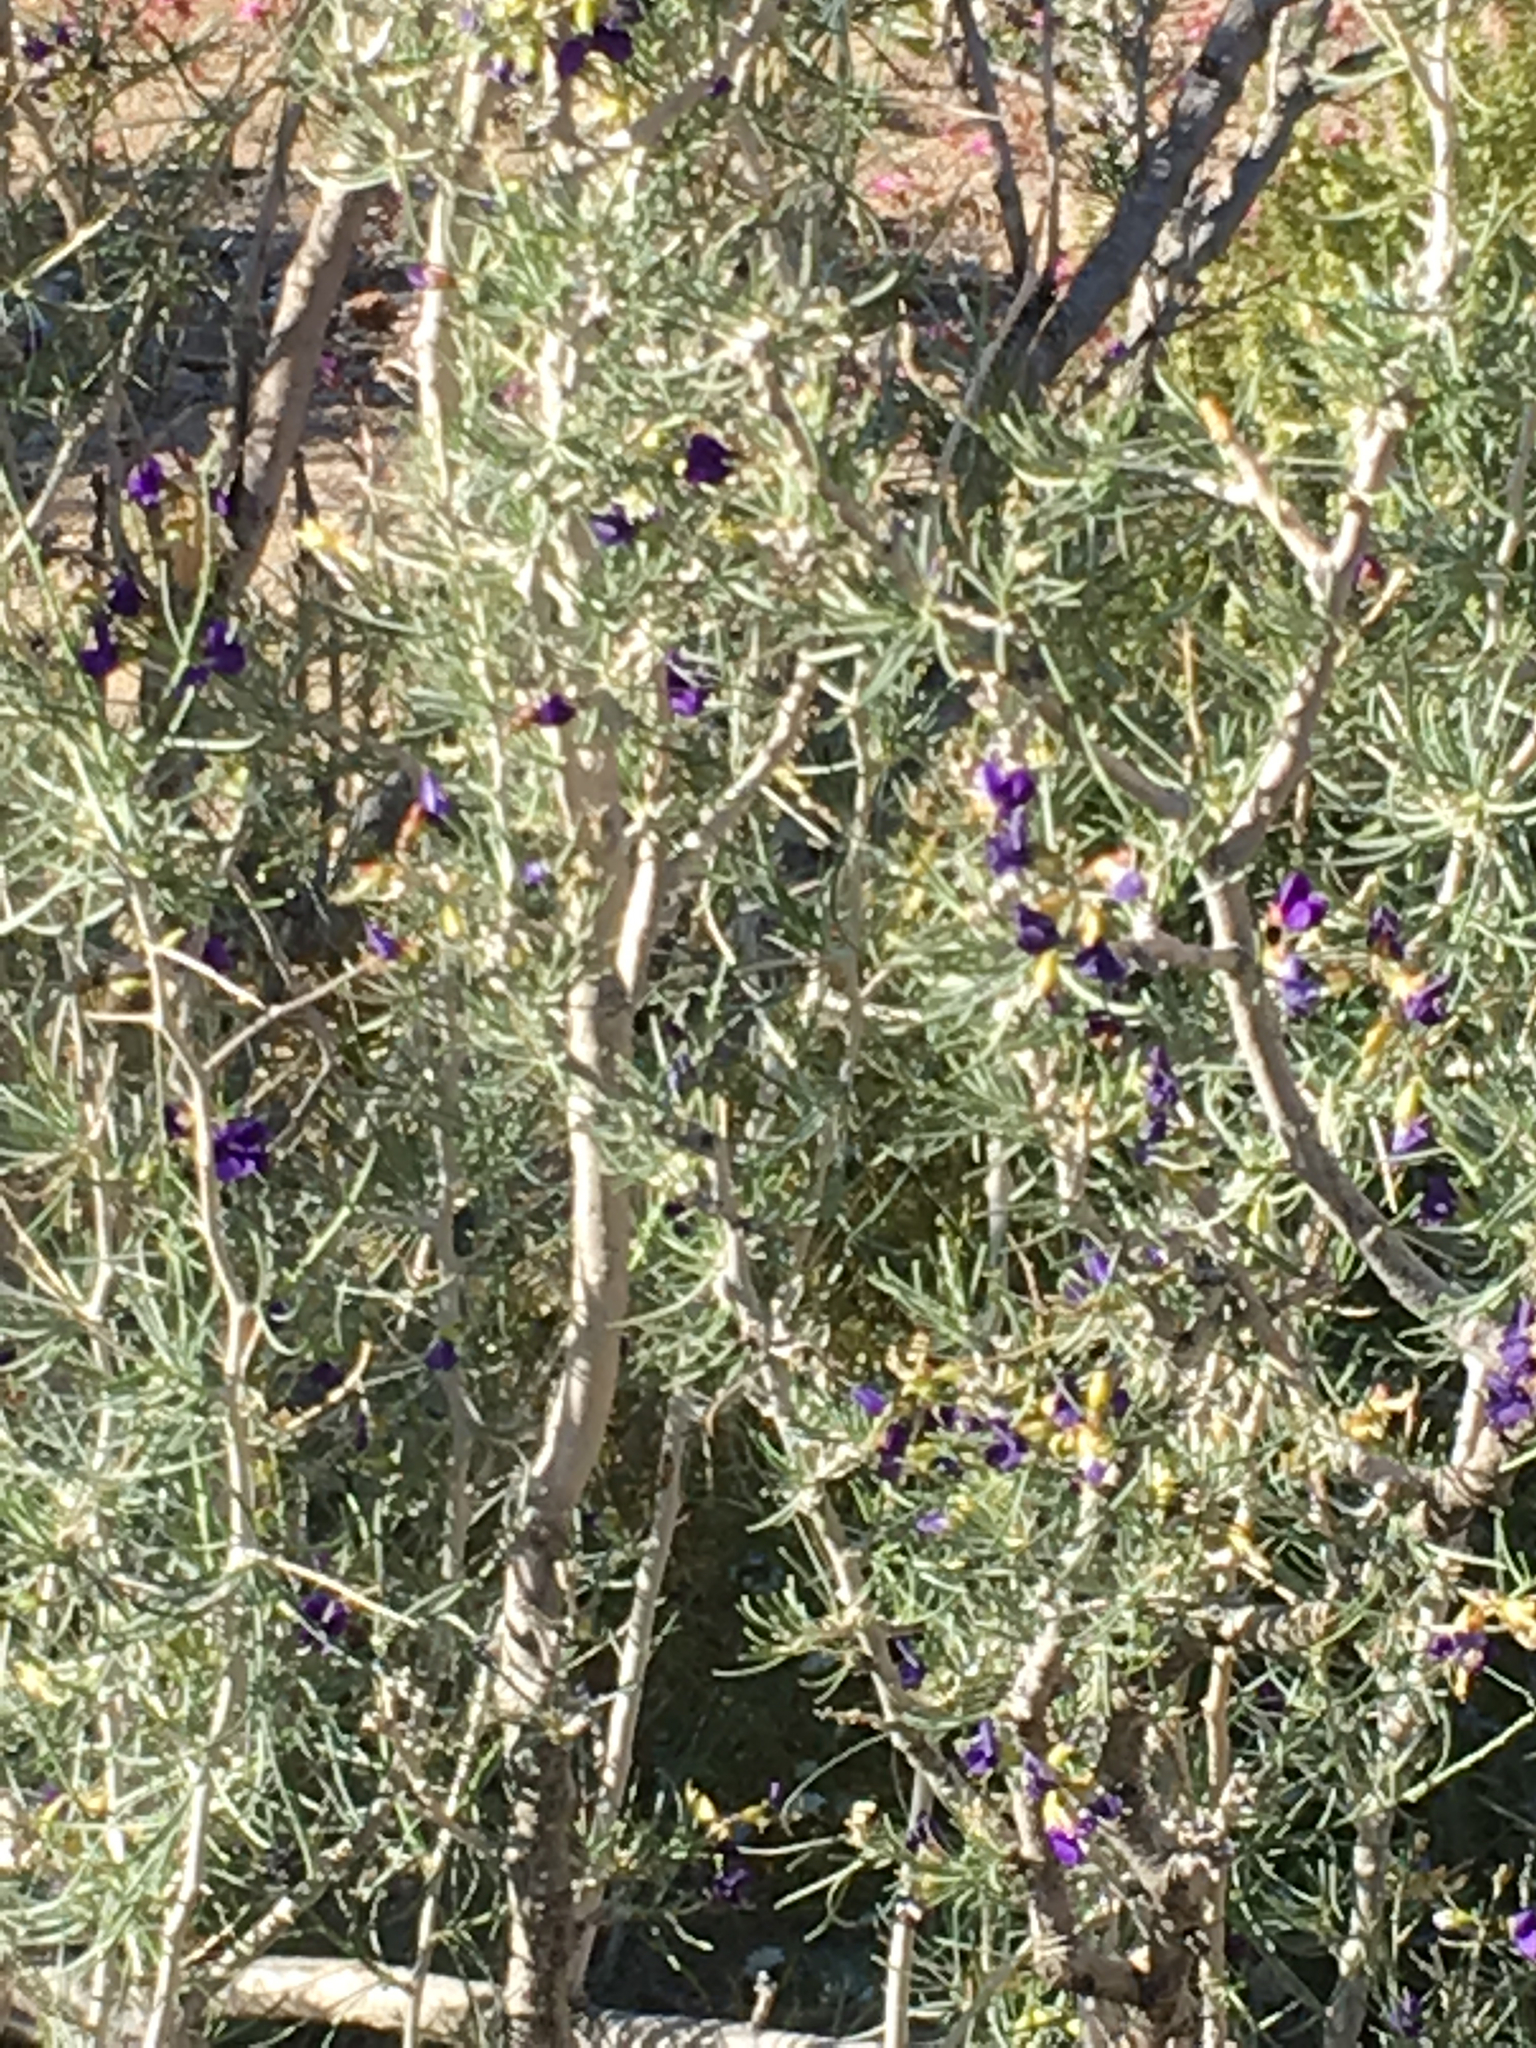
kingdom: Plantae
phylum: Tracheophyta
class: Magnoliopsida
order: Fabales
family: Fabaceae
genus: Psorothamnus
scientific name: Psorothamnus schottii
